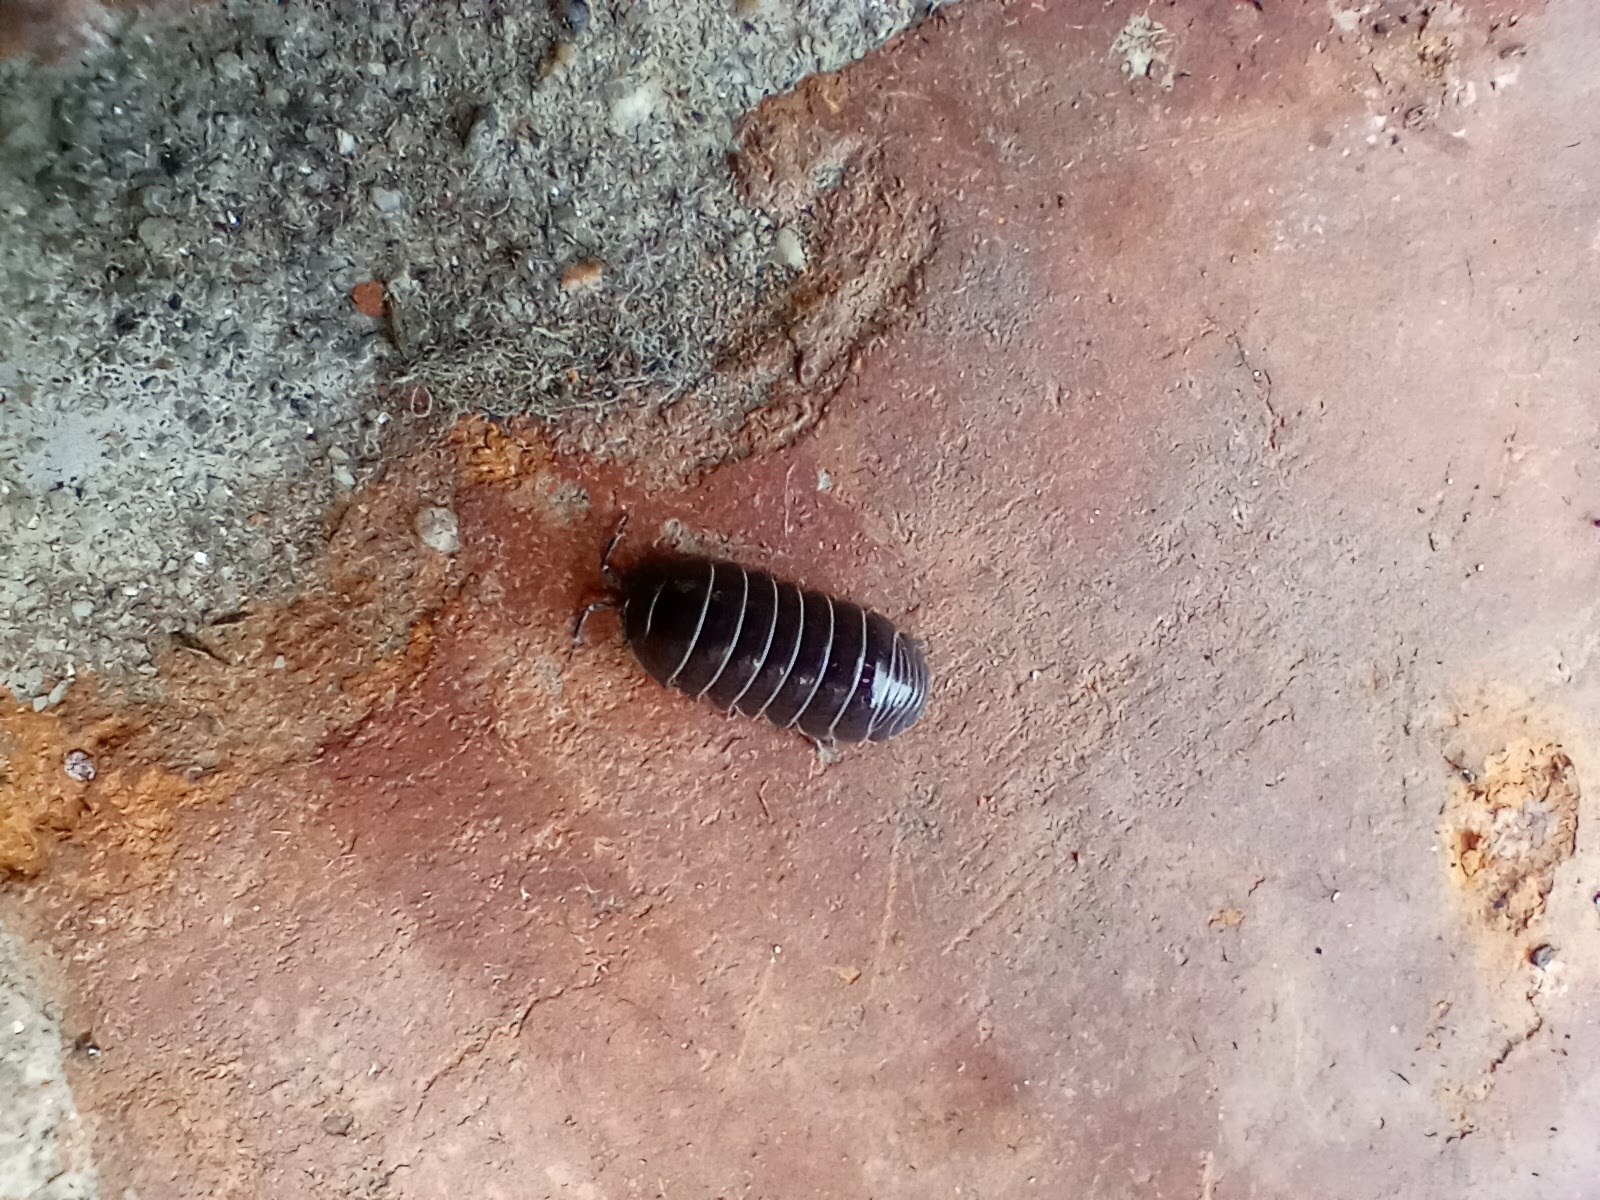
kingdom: Animalia
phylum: Arthropoda
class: Malacostraca
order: Isopoda
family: Armadillidiidae
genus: Armadillidium
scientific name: Armadillidium vulgare
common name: Common pill woodlouse
